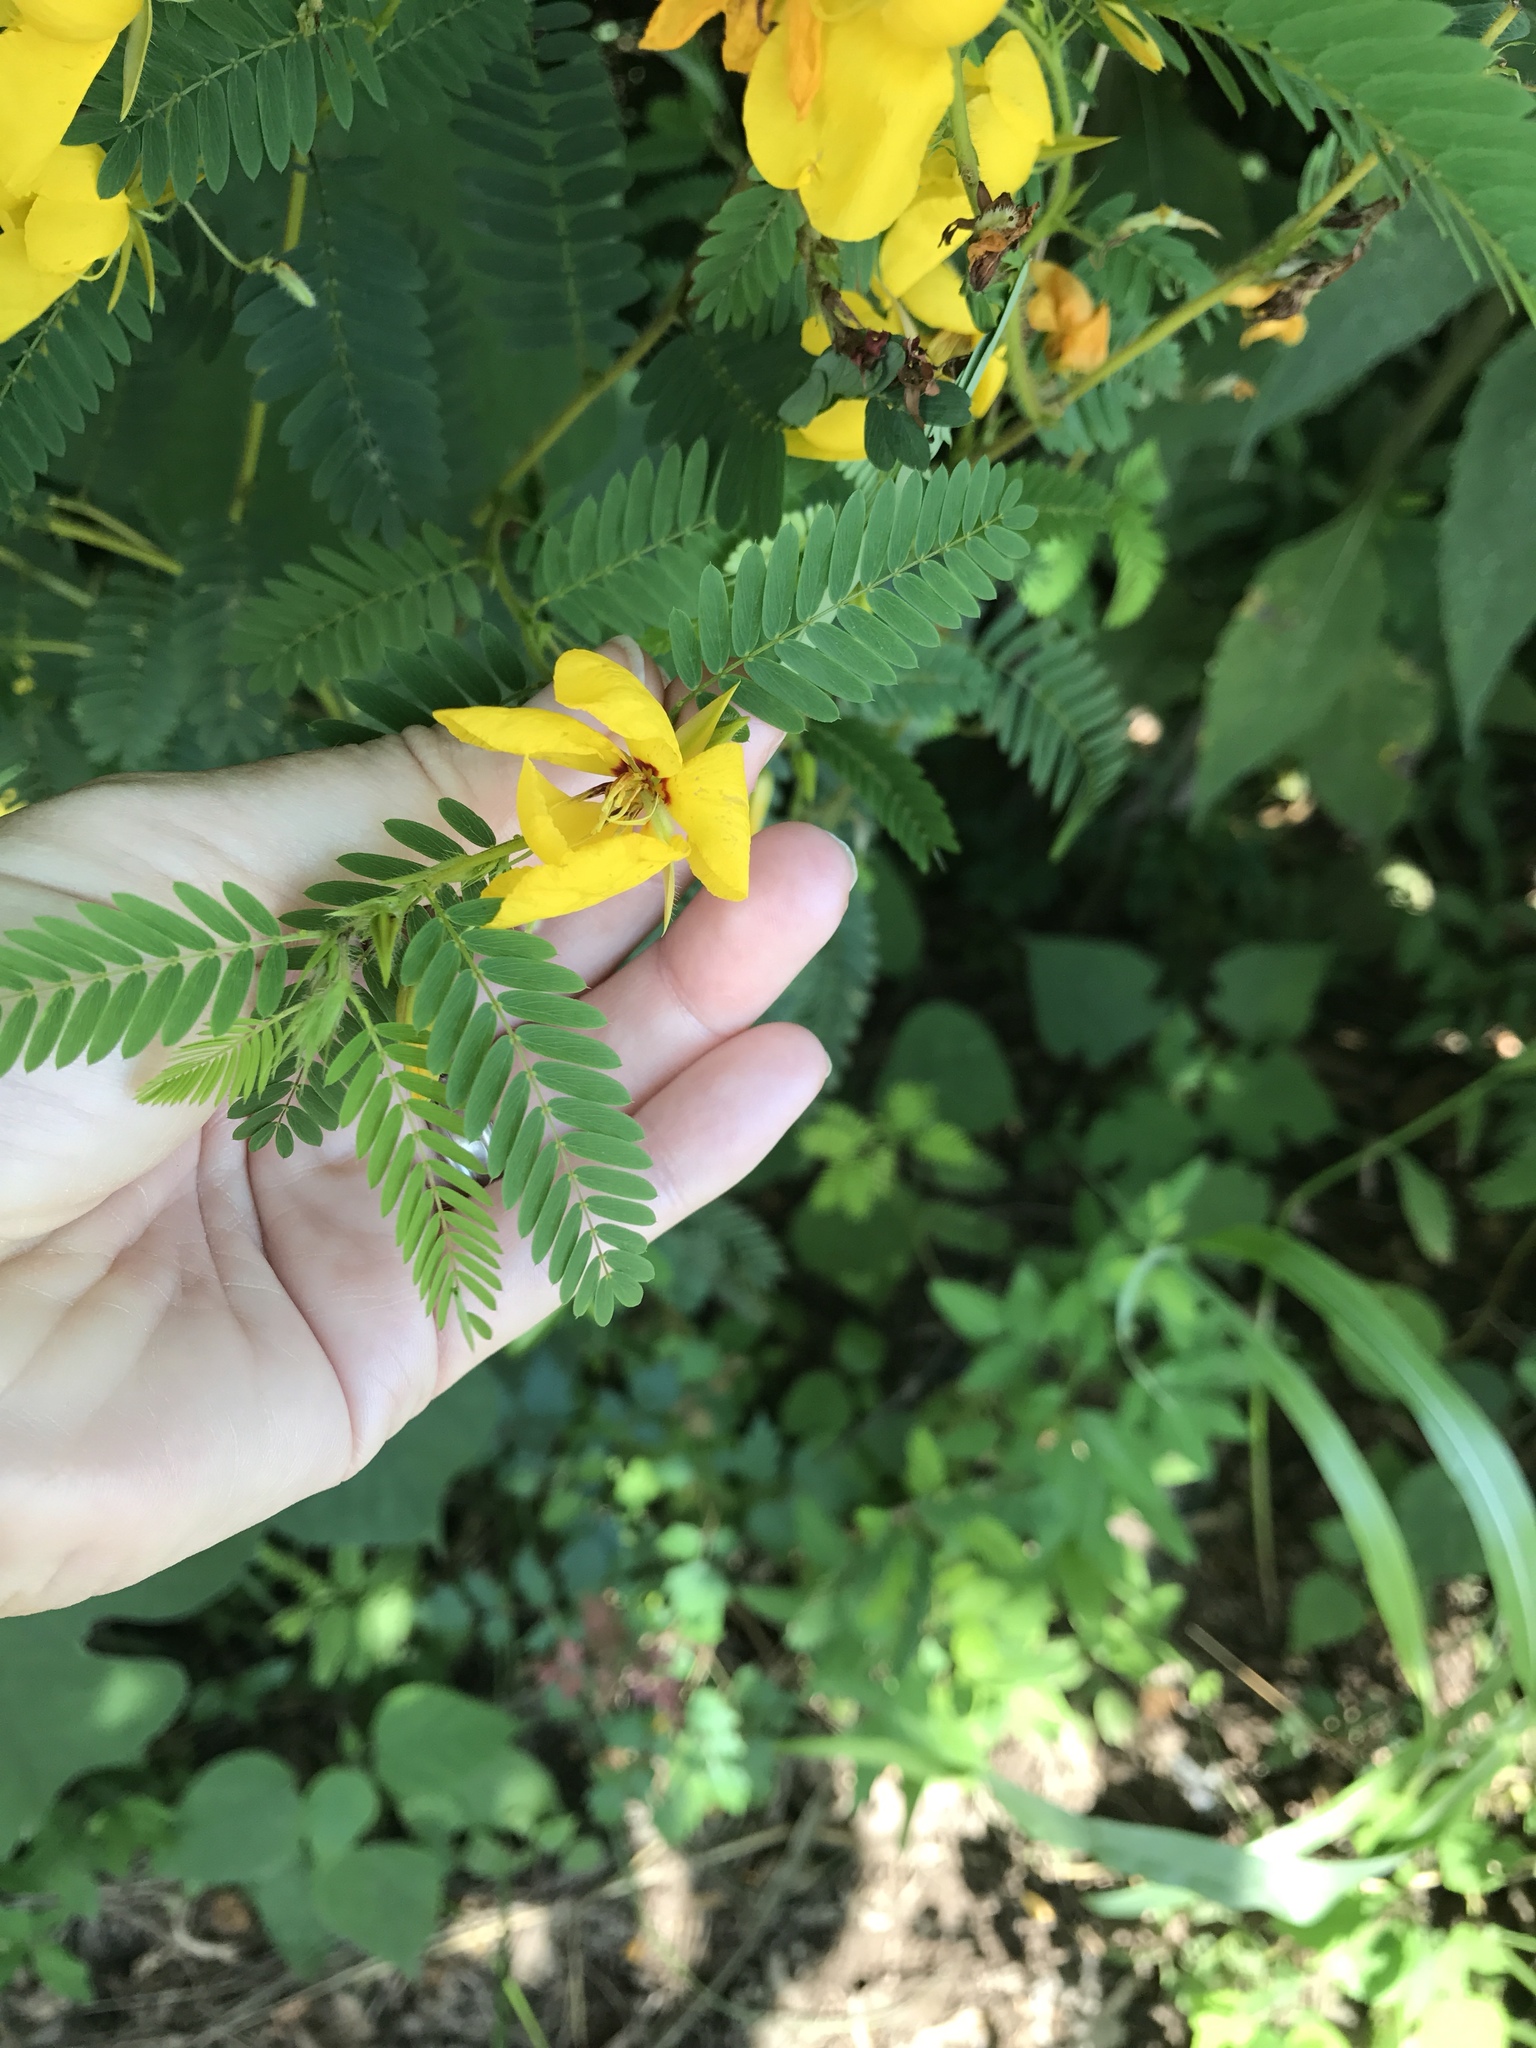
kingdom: Plantae
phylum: Tracheophyta
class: Magnoliopsida
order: Fabales
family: Fabaceae
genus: Chamaecrista
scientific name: Chamaecrista fasciculata
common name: Golden cassia
